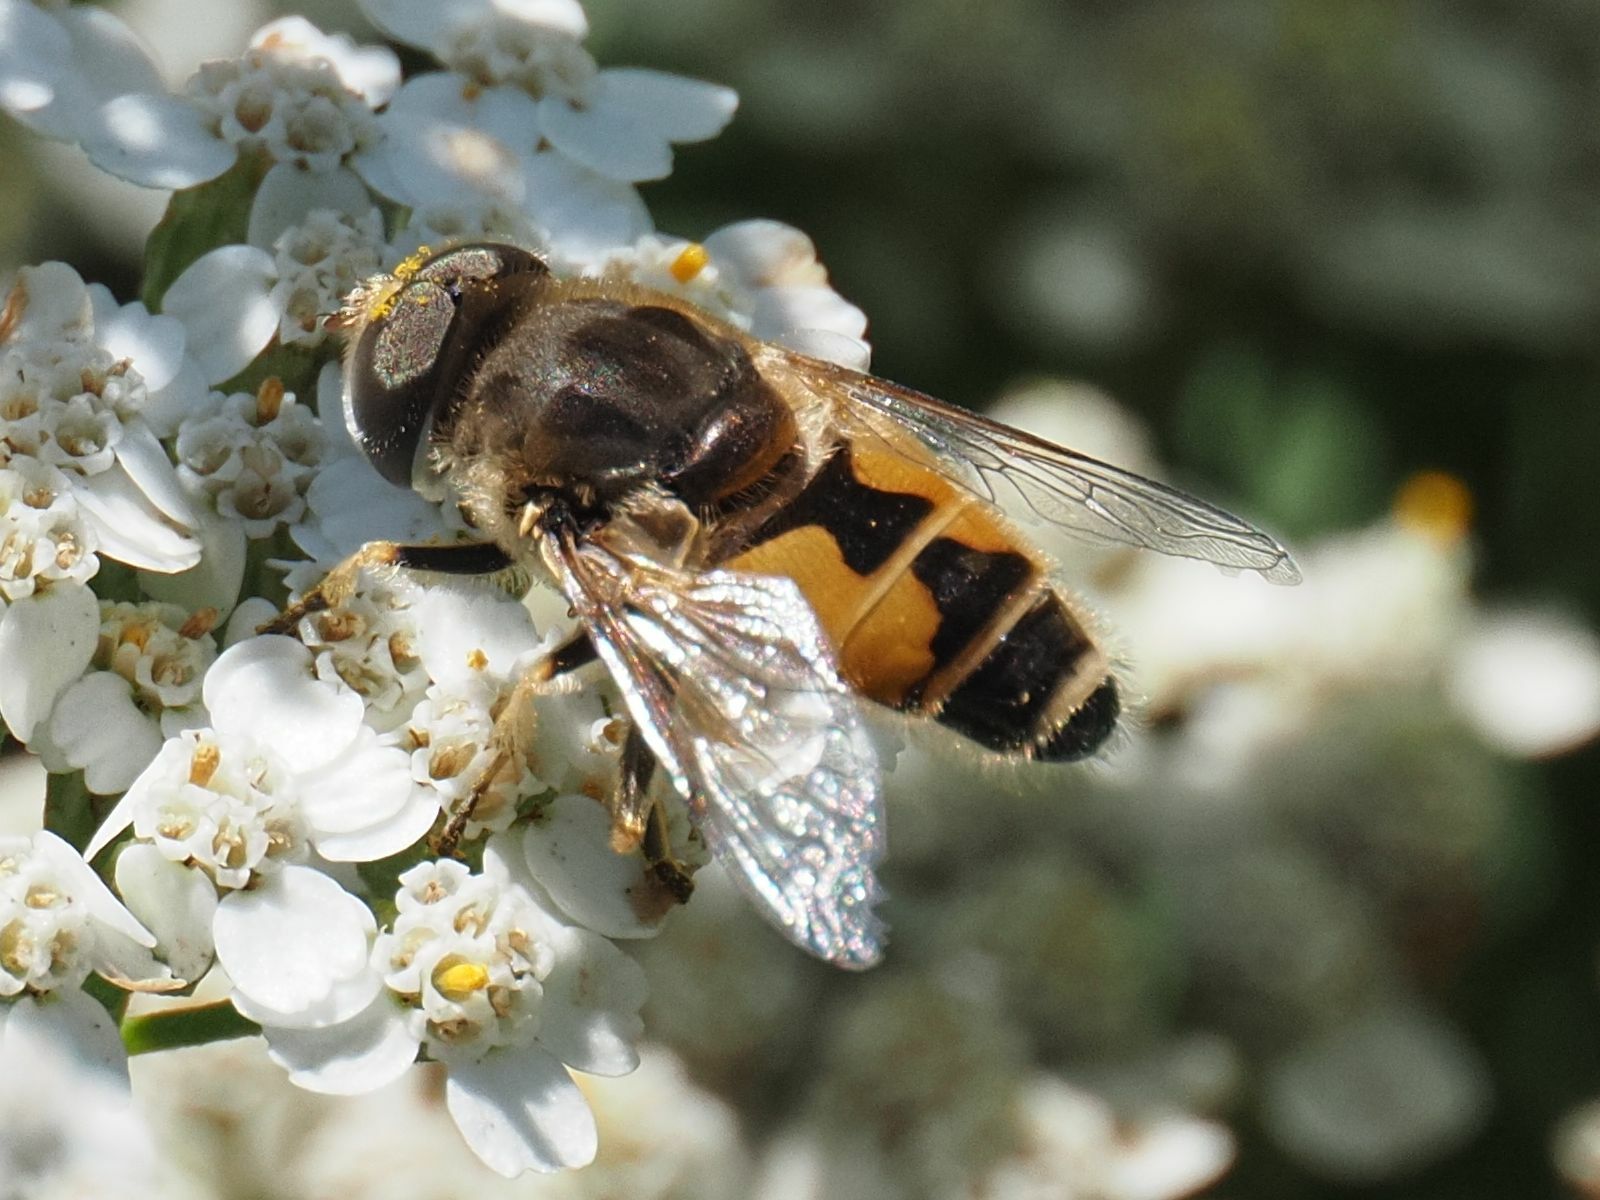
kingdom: Animalia
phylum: Arthropoda
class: Insecta
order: Diptera
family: Syrphidae
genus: Eristalis
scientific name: Eristalis arbustorum
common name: Hover fly
